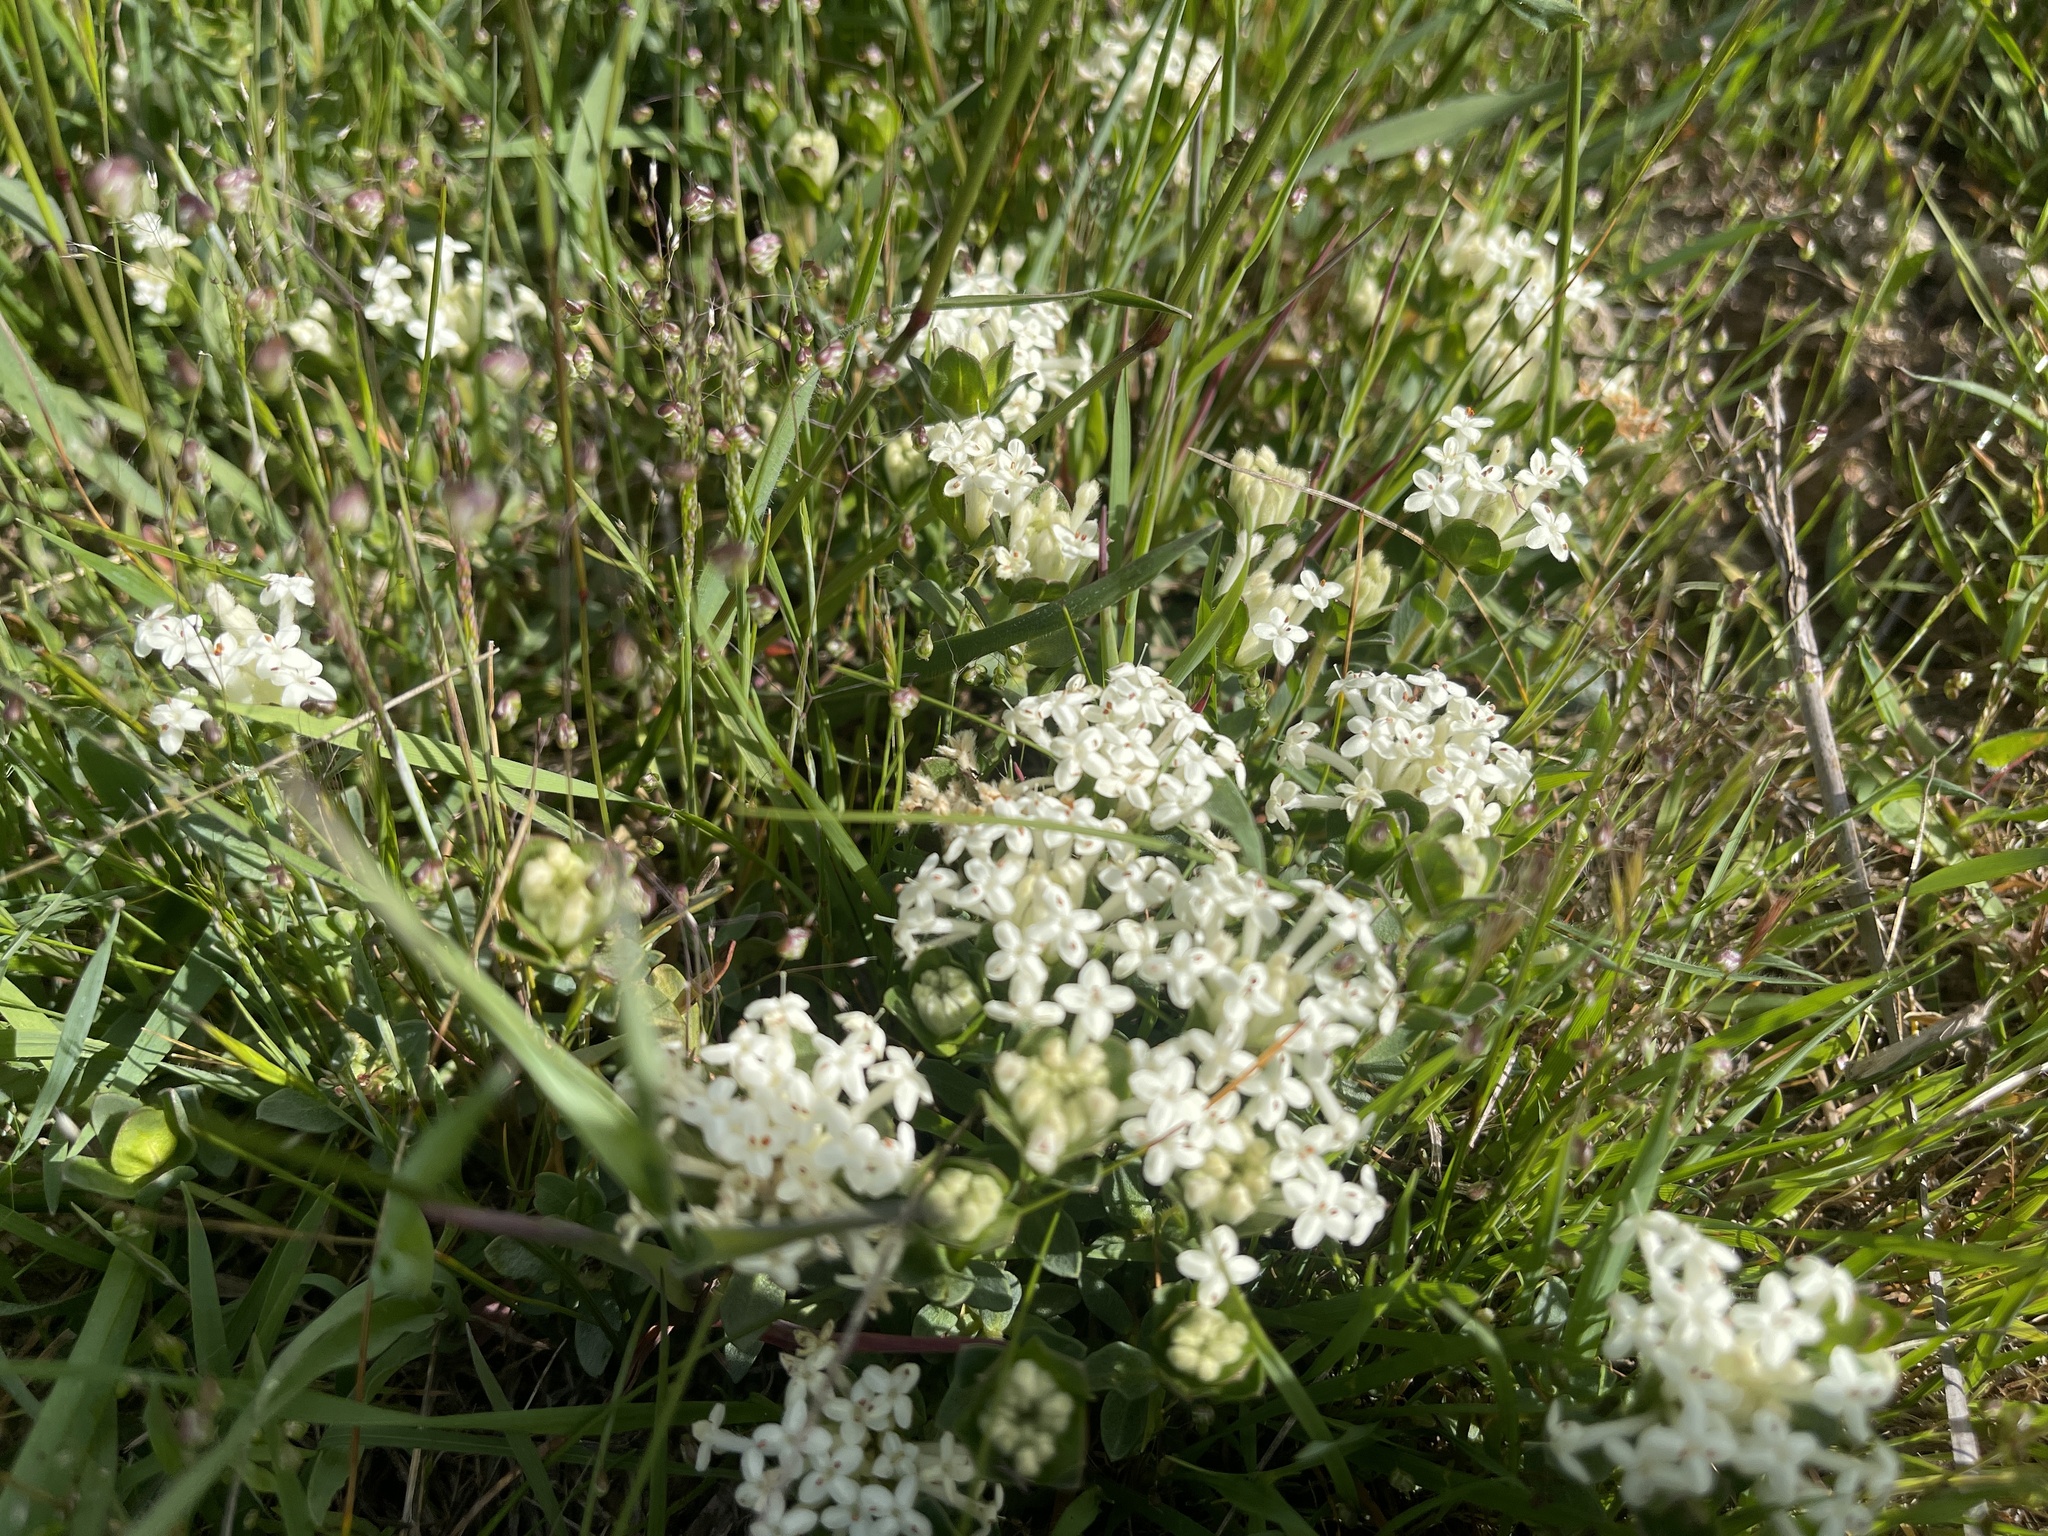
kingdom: Plantae
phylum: Tracheophyta
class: Magnoliopsida
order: Malvales
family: Thymelaeaceae
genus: Pimelea
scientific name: Pimelea humilis
